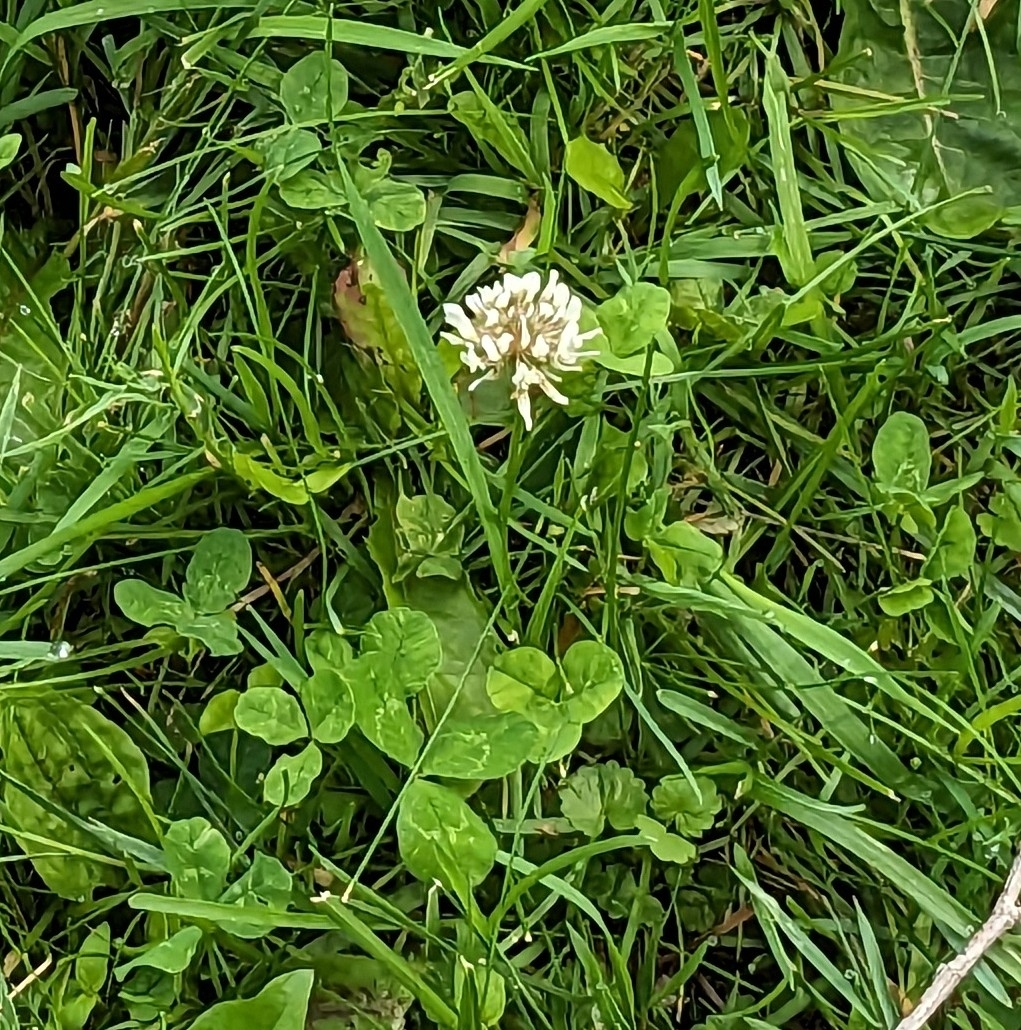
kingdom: Plantae
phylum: Tracheophyta
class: Magnoliopsida
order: Fabales
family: Fabaceae
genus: Trifolium
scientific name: Trifolium repens
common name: White clover
